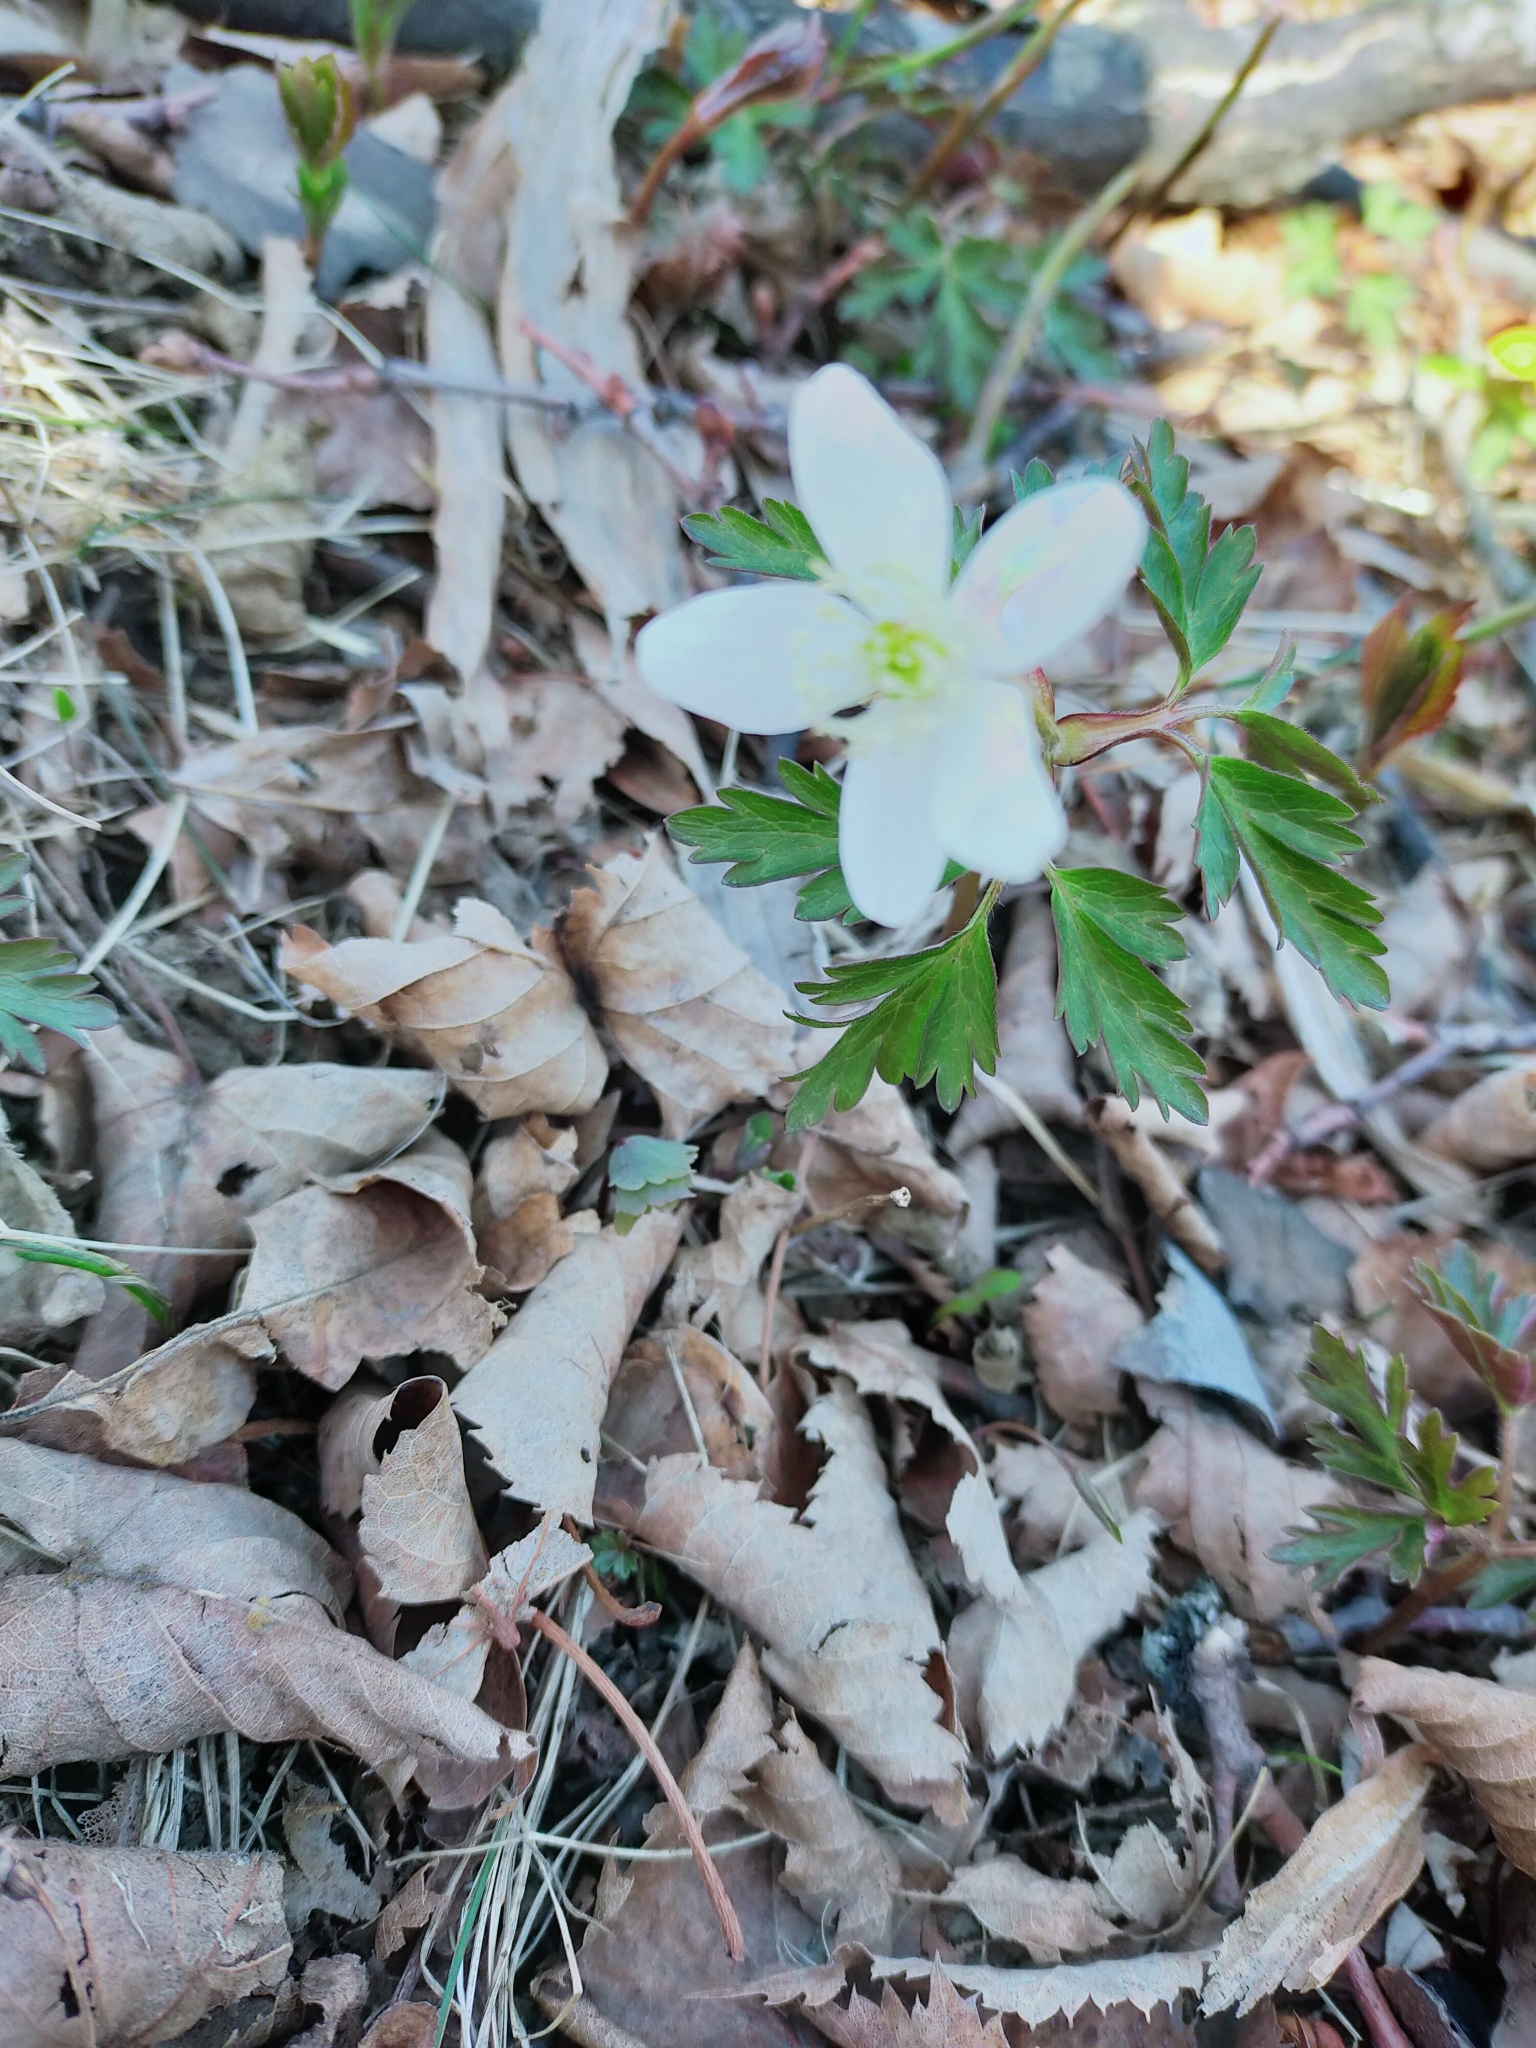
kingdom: Plantae
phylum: Tracheophyta
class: Magnoliopsida
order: Ranunculales
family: Ranunculaceae
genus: Anemone
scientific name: Anemone amurensis
